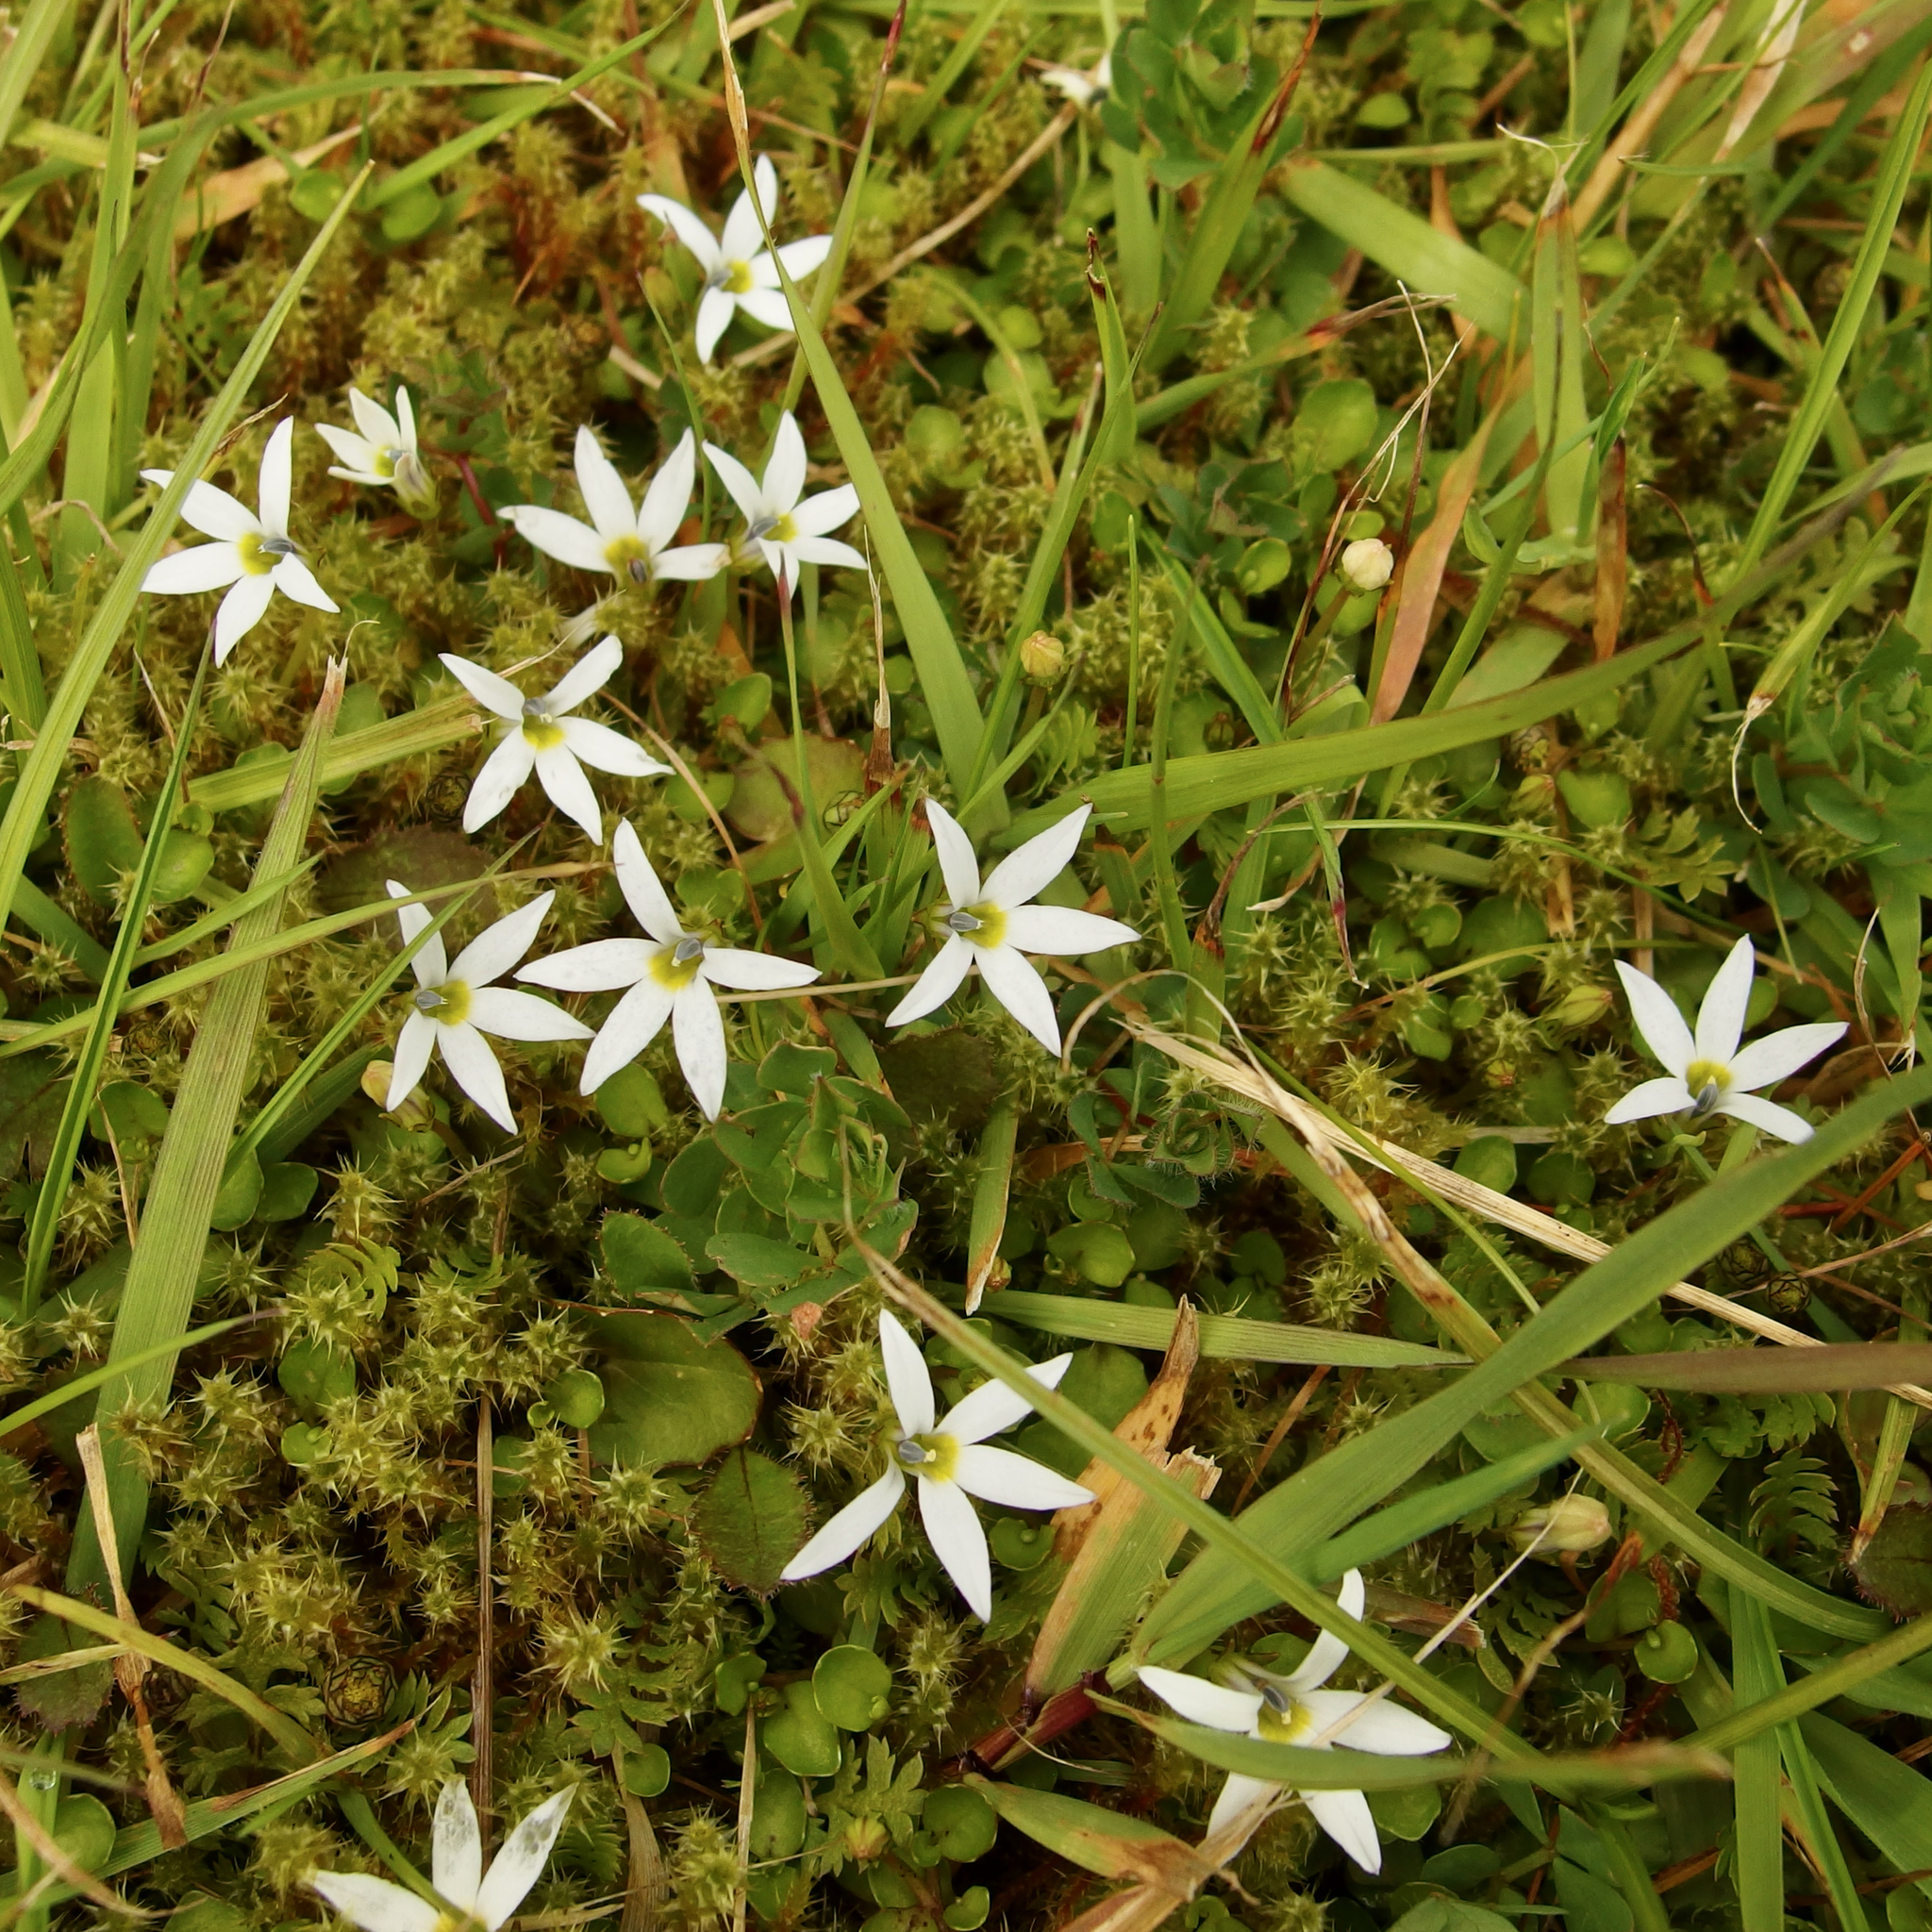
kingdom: Plantae
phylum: Tracheophyta
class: Magnoliopsida
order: Asterales
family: Campanulaceae
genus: Lobelia
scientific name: Lobelia perpusilla
